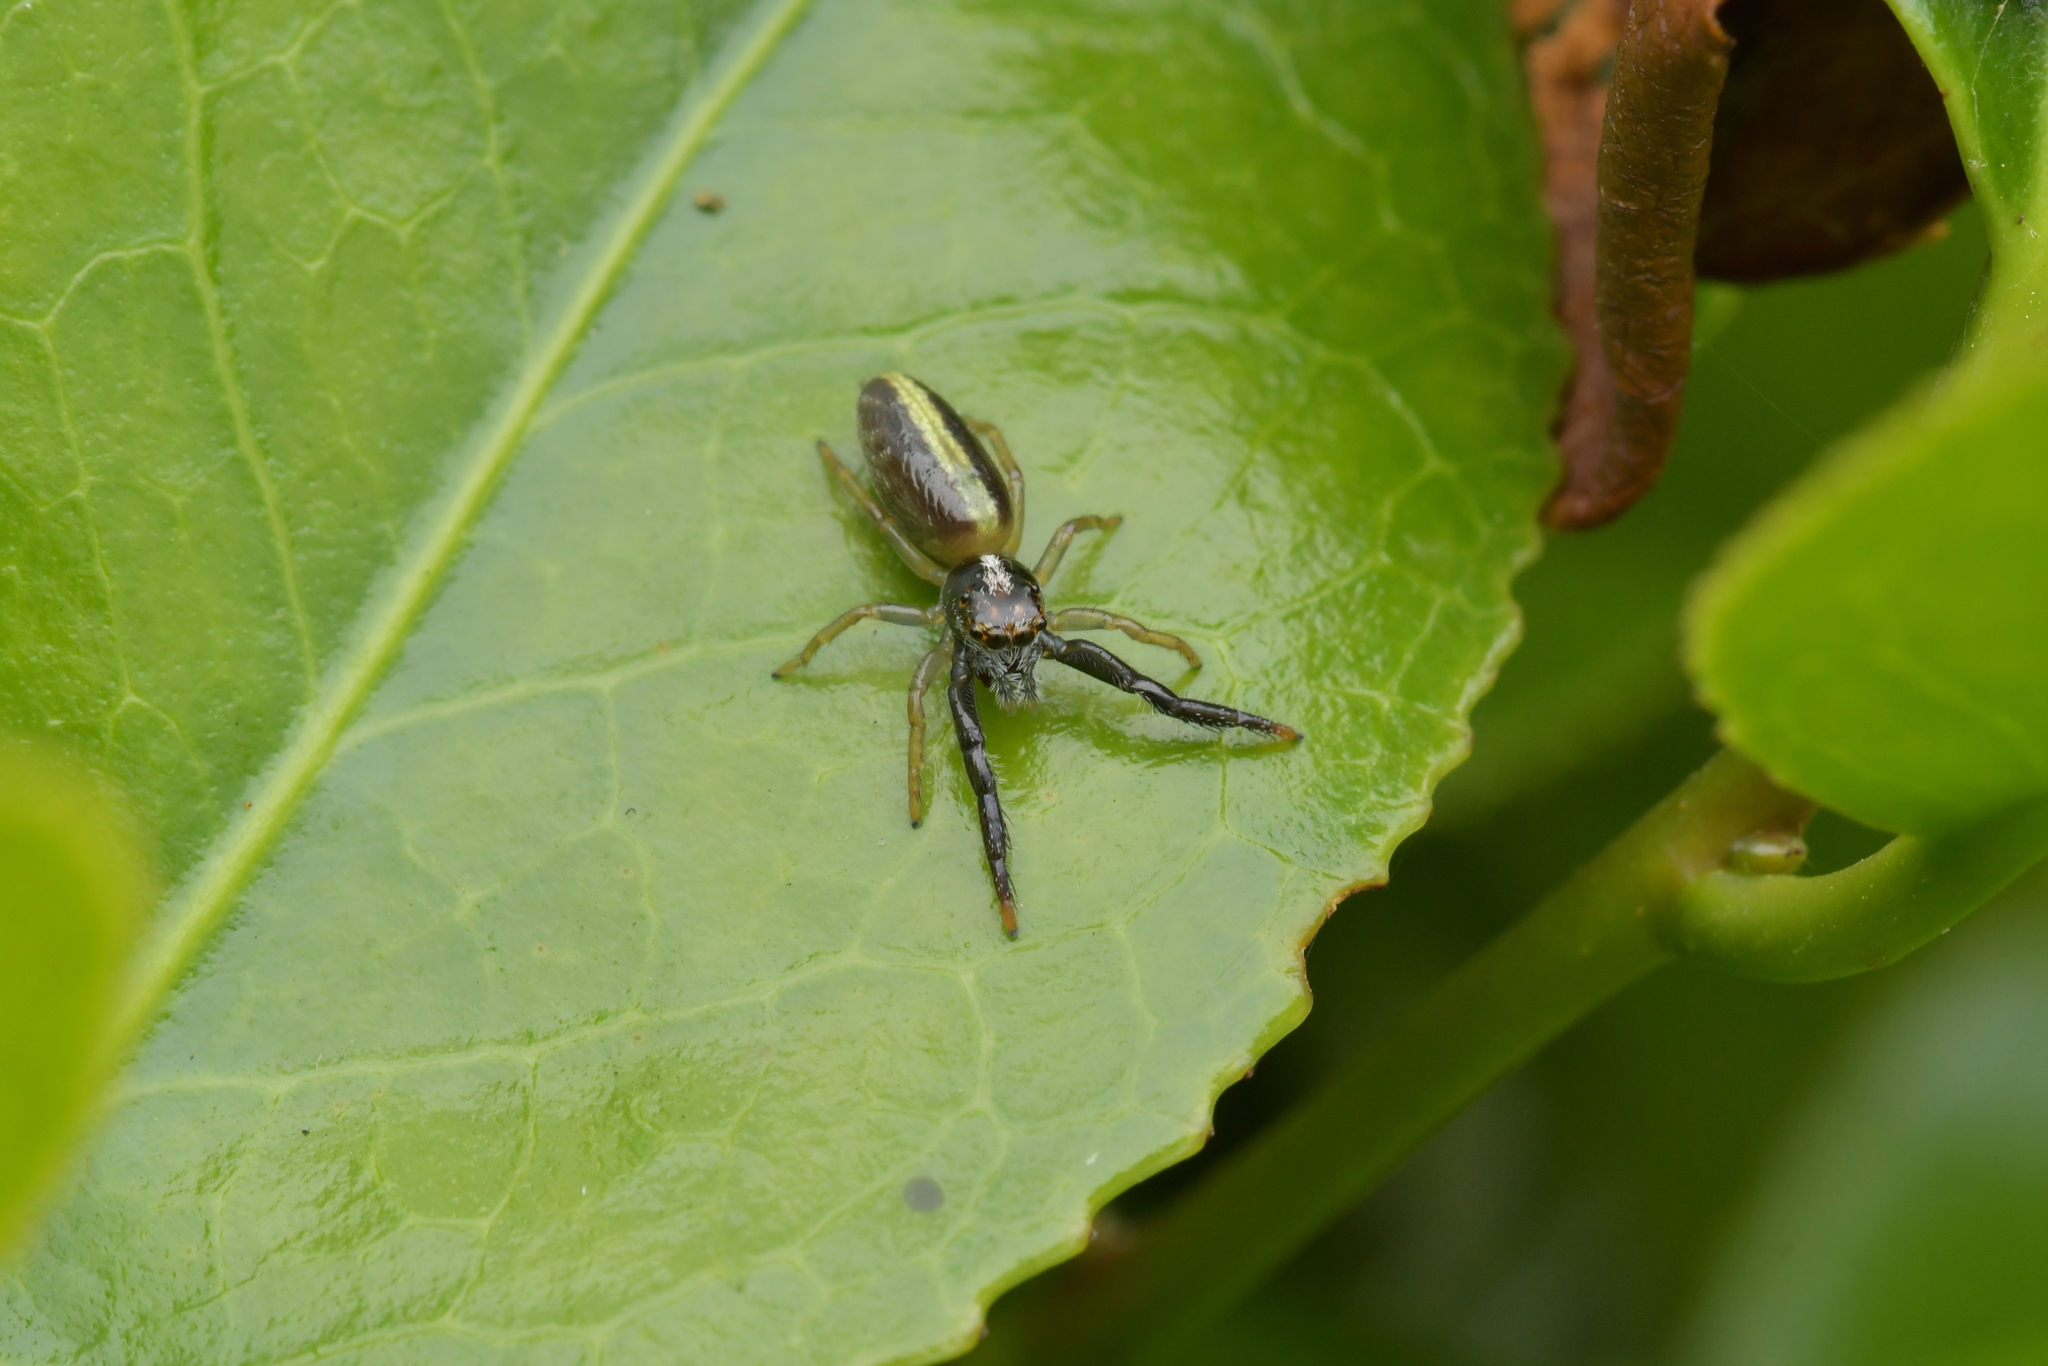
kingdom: Animalia
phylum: Arthropoda
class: Arachnida
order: Araneae
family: Salticidae
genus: Trite
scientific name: Trite planiceps
